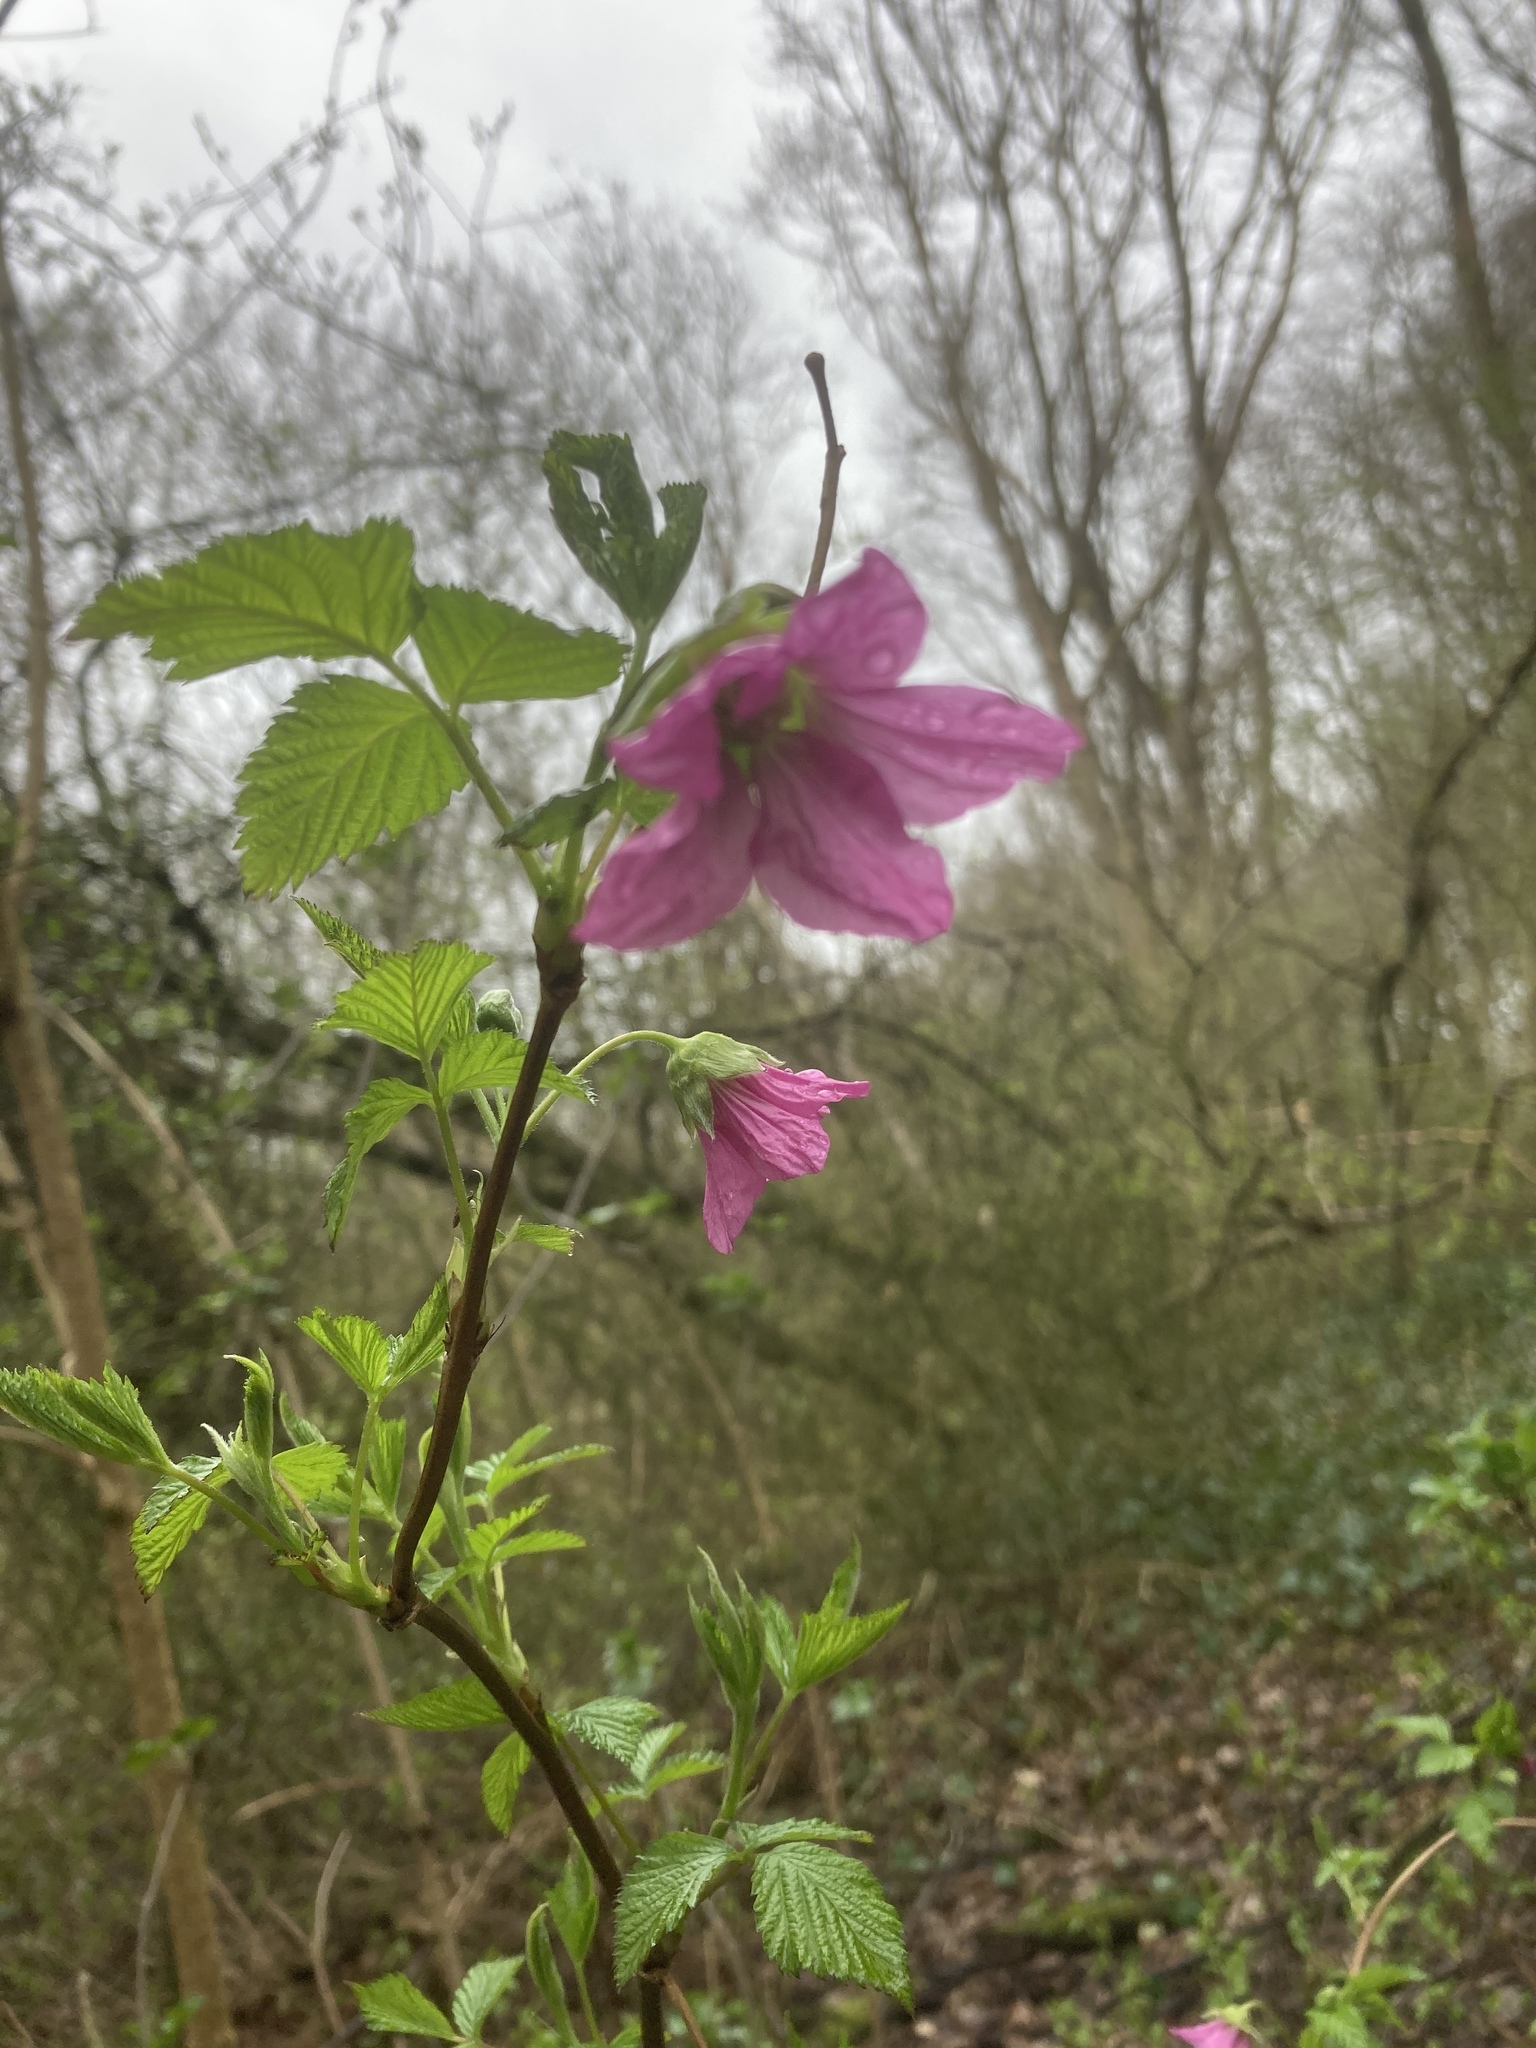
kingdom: Plantae
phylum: Tracheophyta
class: Magnoliopsida
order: Rosales
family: Rosaceae
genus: Rubus
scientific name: Rubus spectabilis
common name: Salmonberry
